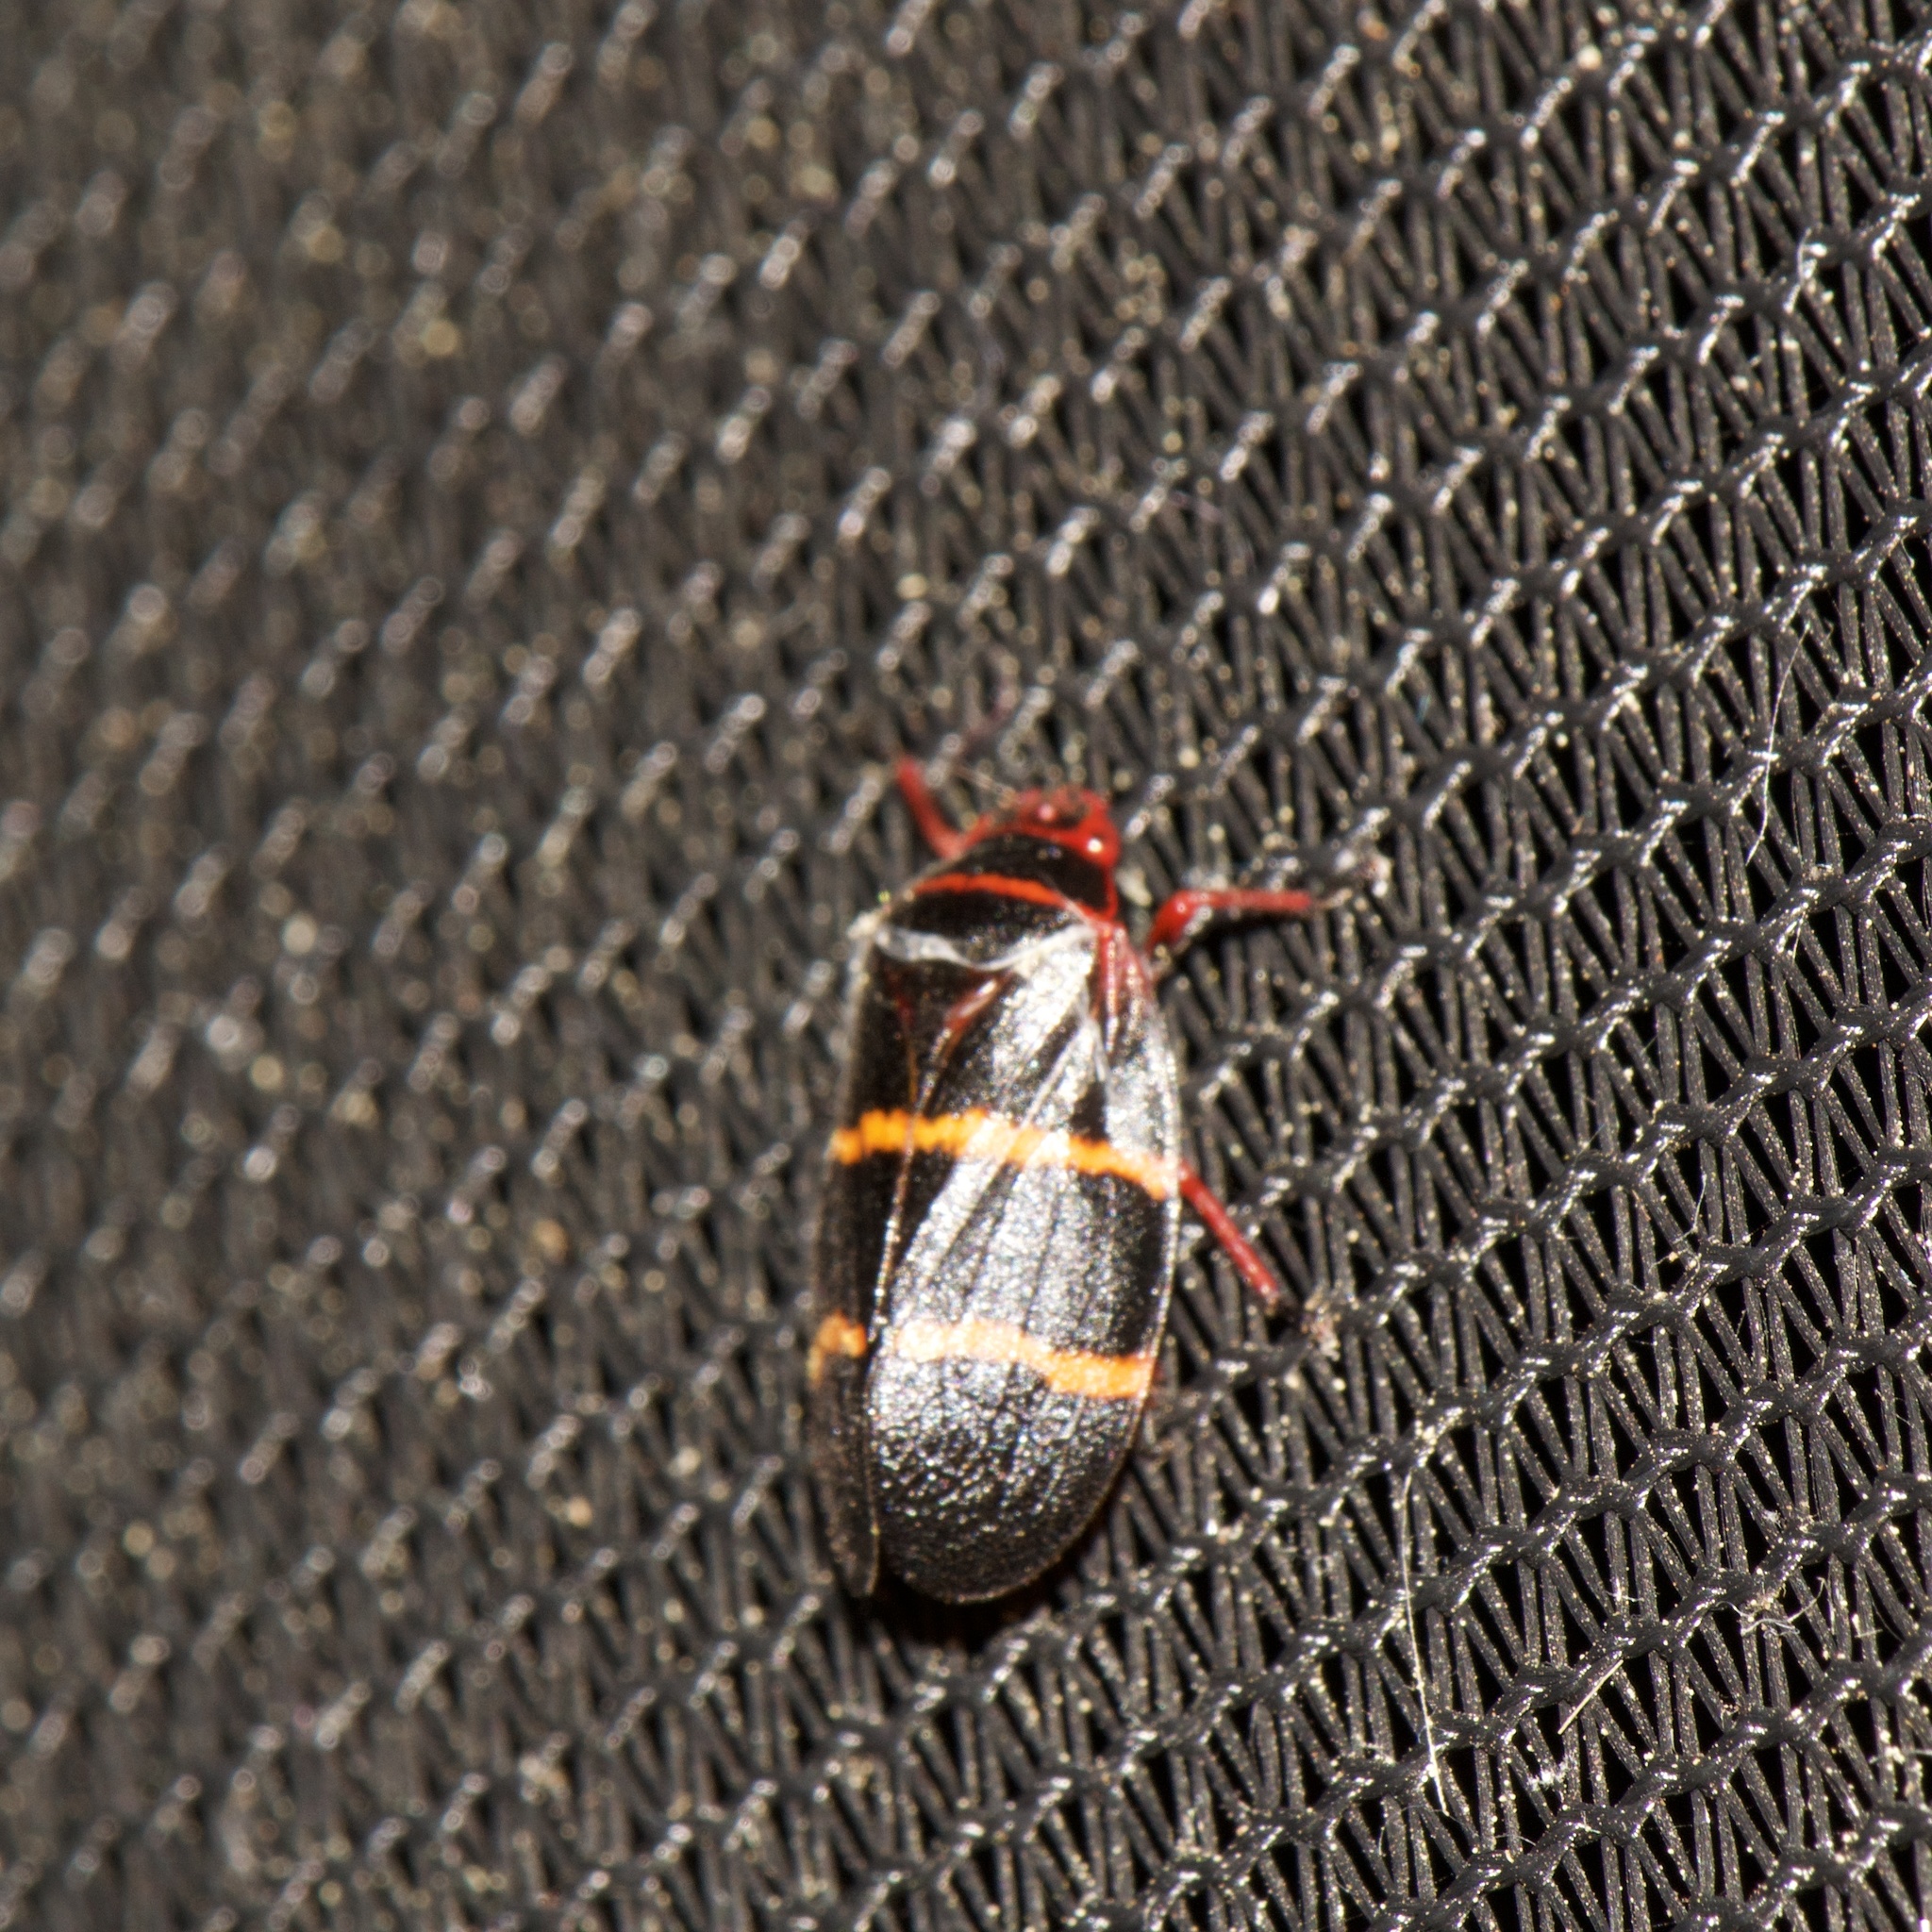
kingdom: Animalia
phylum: Arthropoda
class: Insecta
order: Hemiptera
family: Cercopidae
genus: Prosapia
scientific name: Prosapia bicincta
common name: Twolined spittlebug
